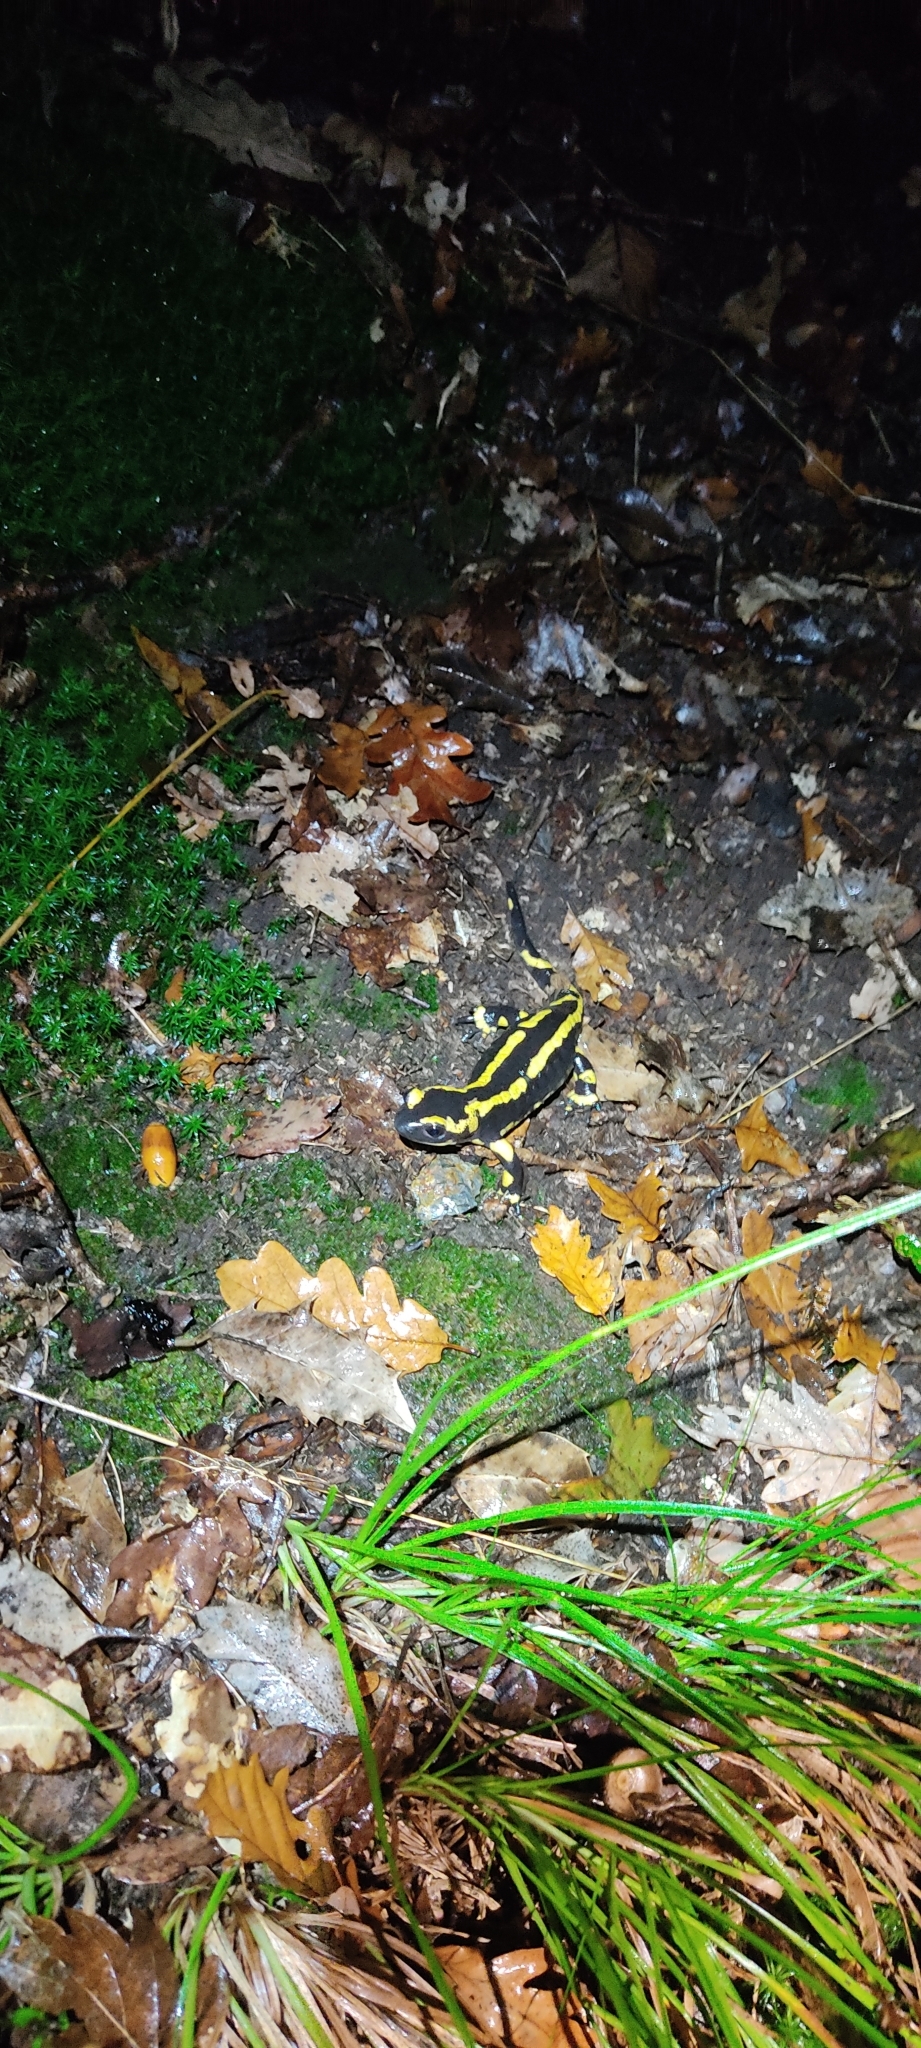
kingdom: Animalia
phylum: Chordata
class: Amphibia
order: Caudata
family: Salamandridae
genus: Salamandra
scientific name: Salamandra salamandra
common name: Fire salamander
